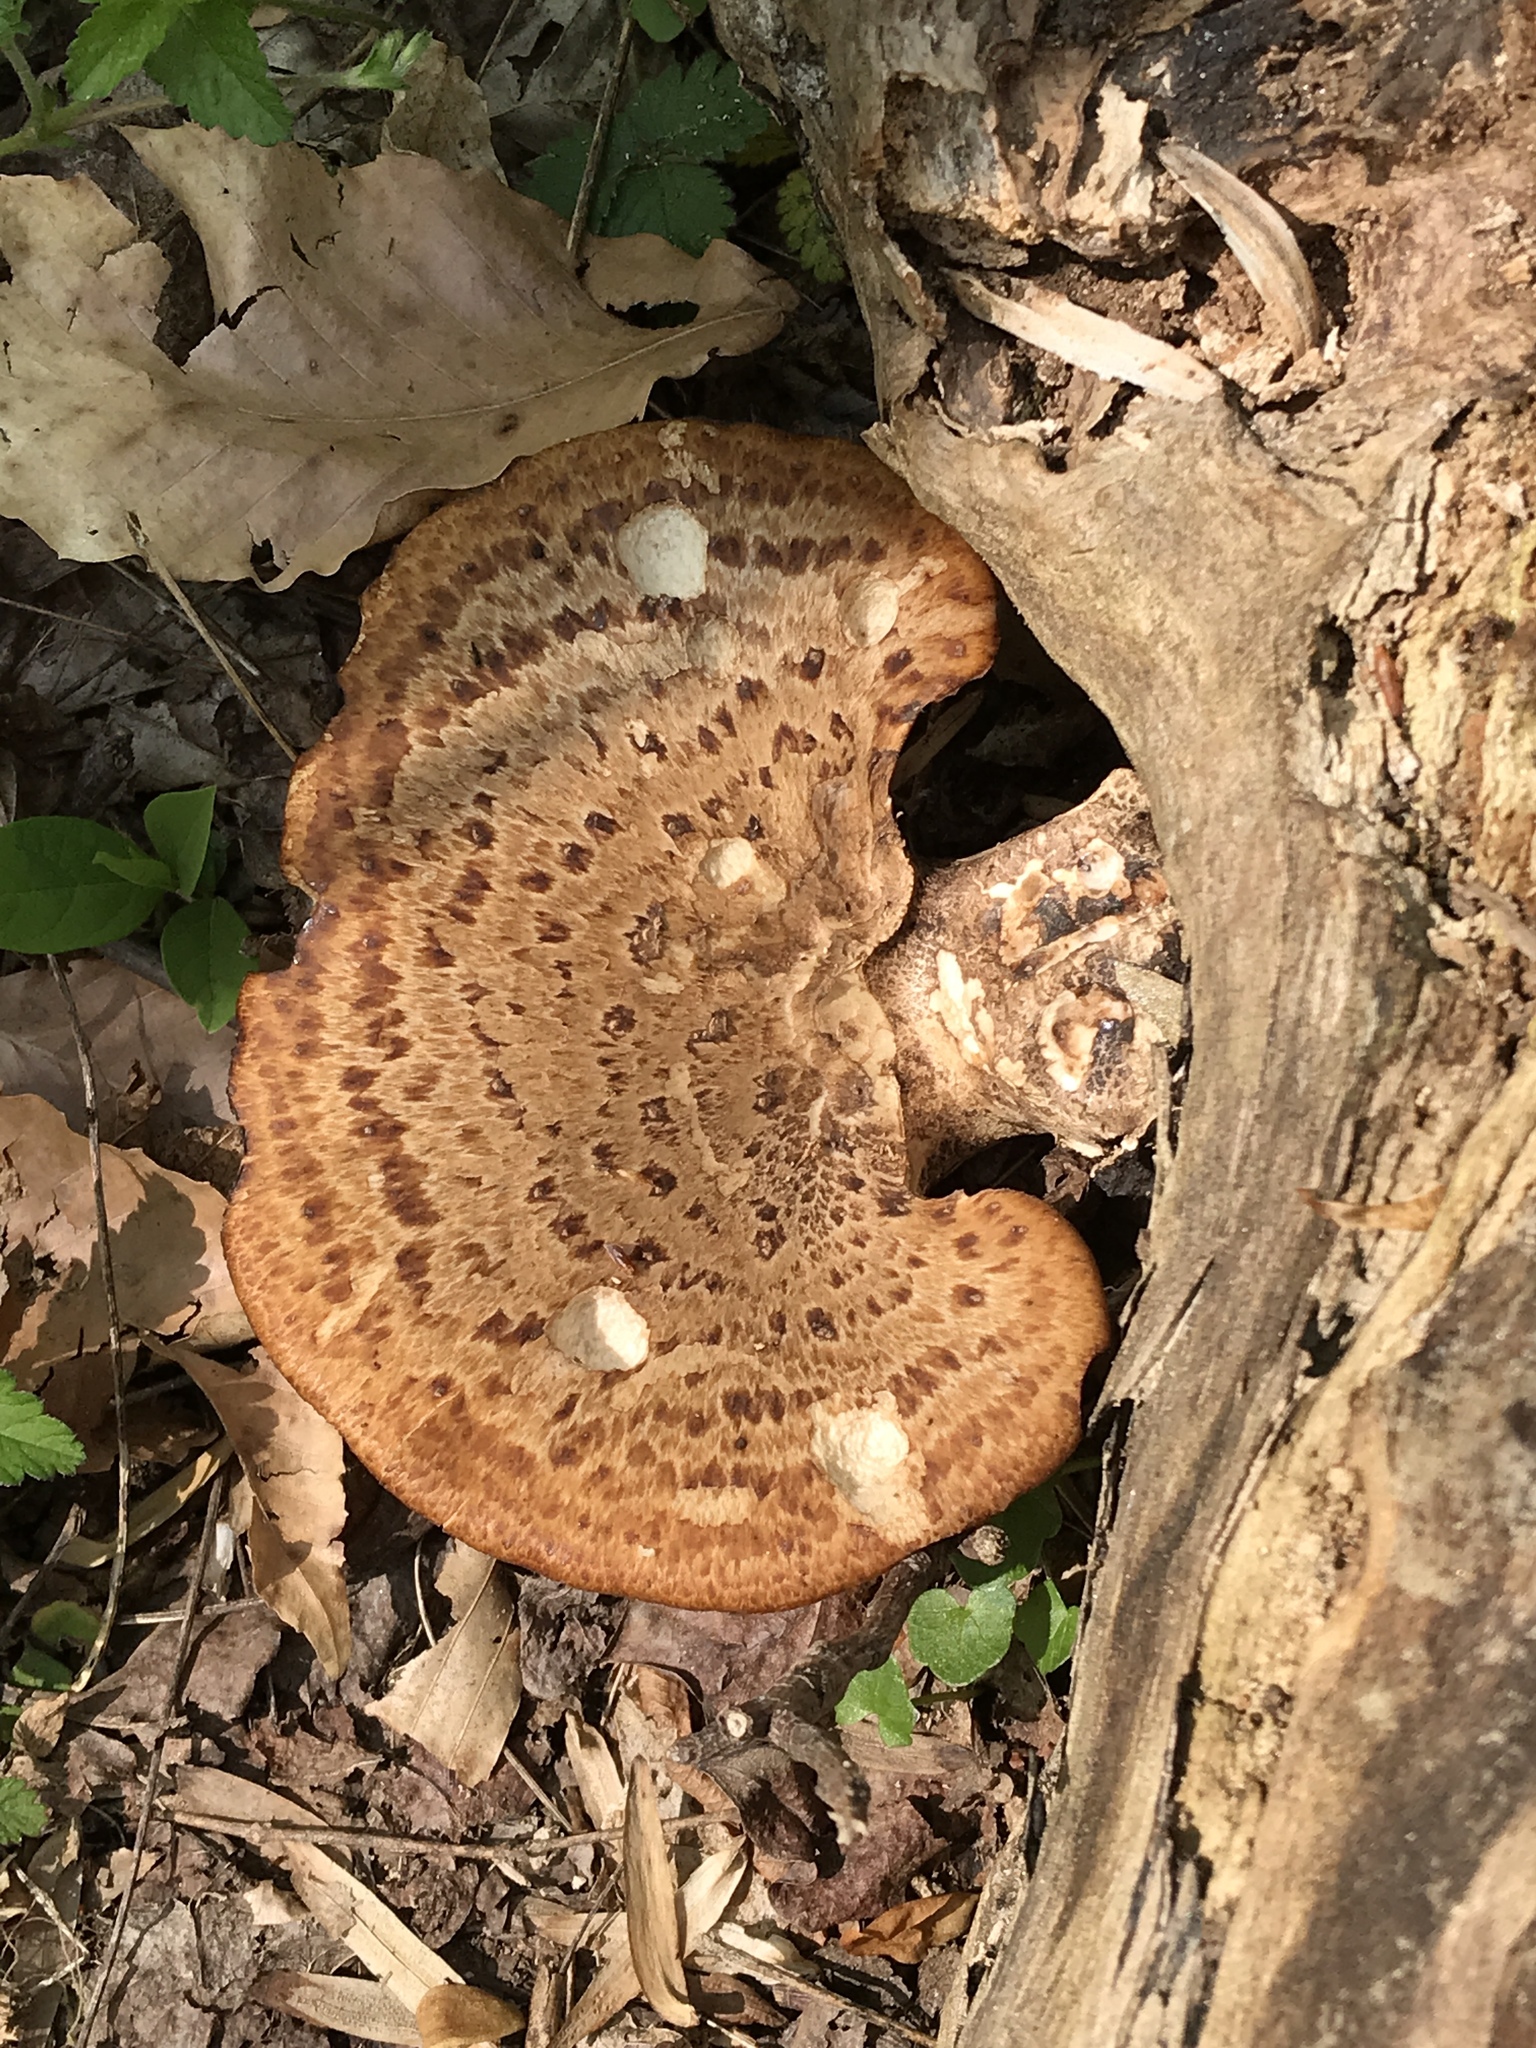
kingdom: Fungi
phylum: Basidiomycota
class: Agaricomycetes
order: Polyporales
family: Polyporaceae
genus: Cerioporus
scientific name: Cerioporus squamosus
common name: Dryad's saddle
